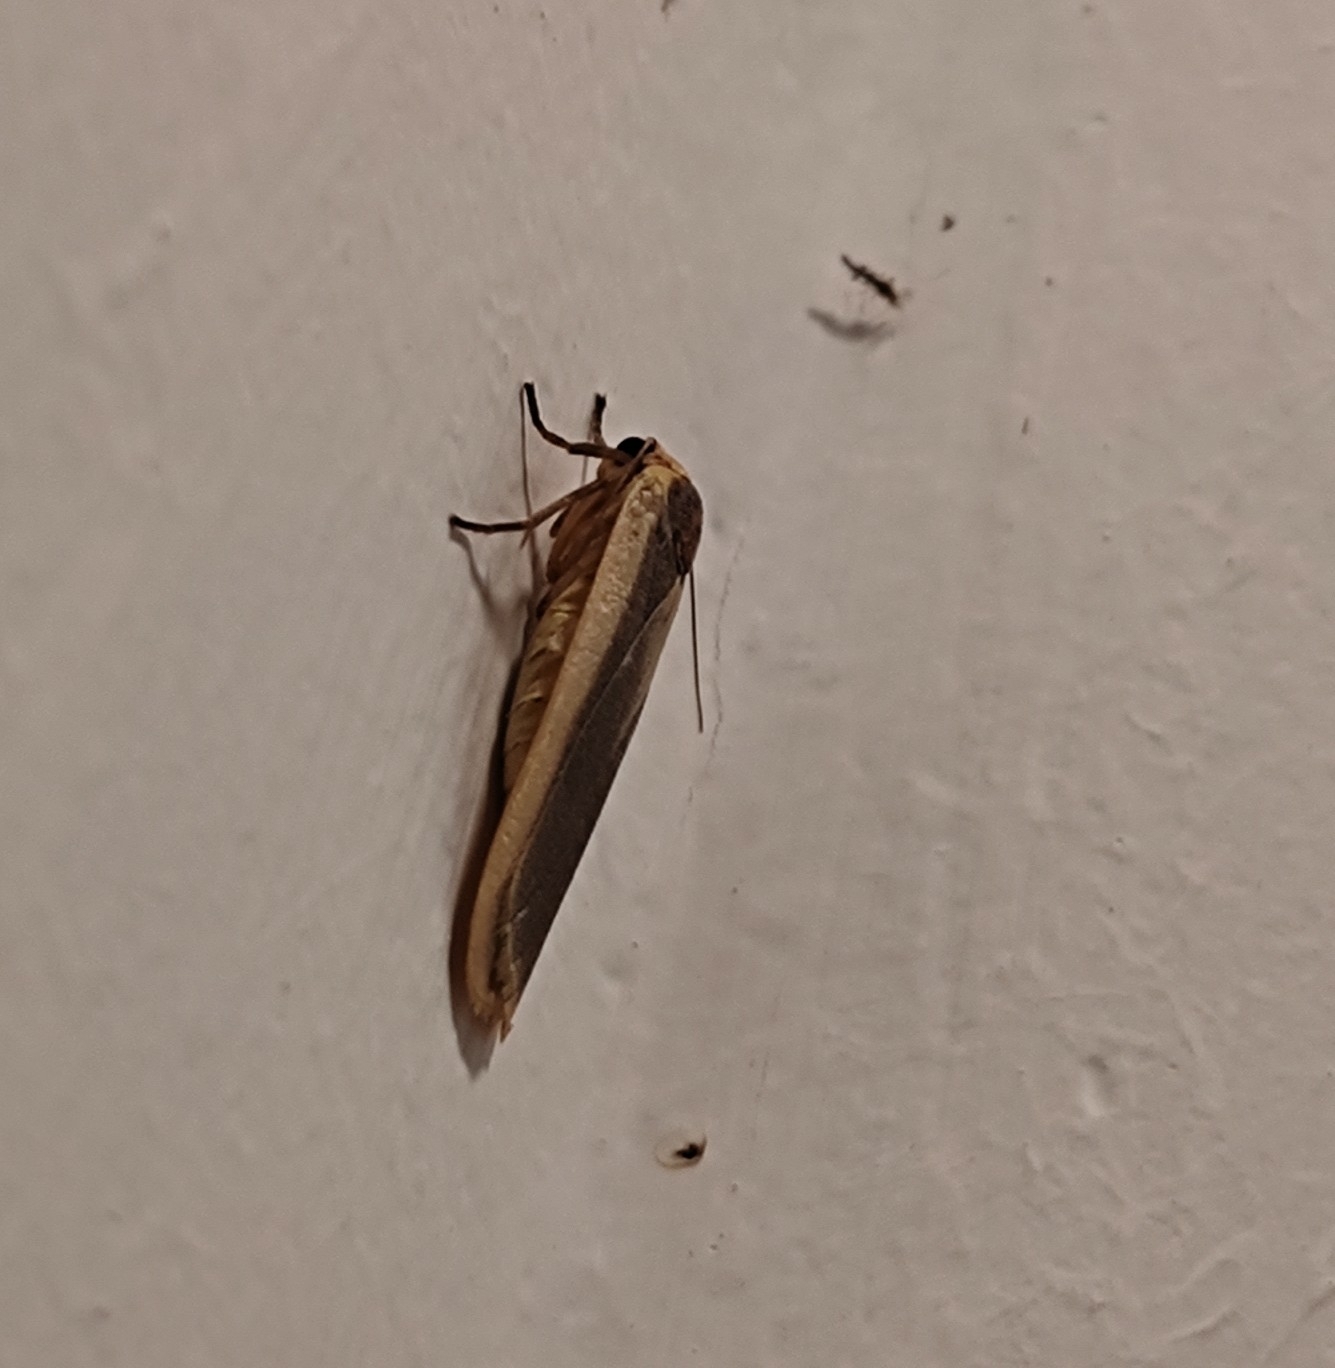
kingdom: Animalia
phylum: Arthropoda
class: Insecta
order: Lepidoptera
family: Erebidae
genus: Brunia
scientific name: Brunia antica
